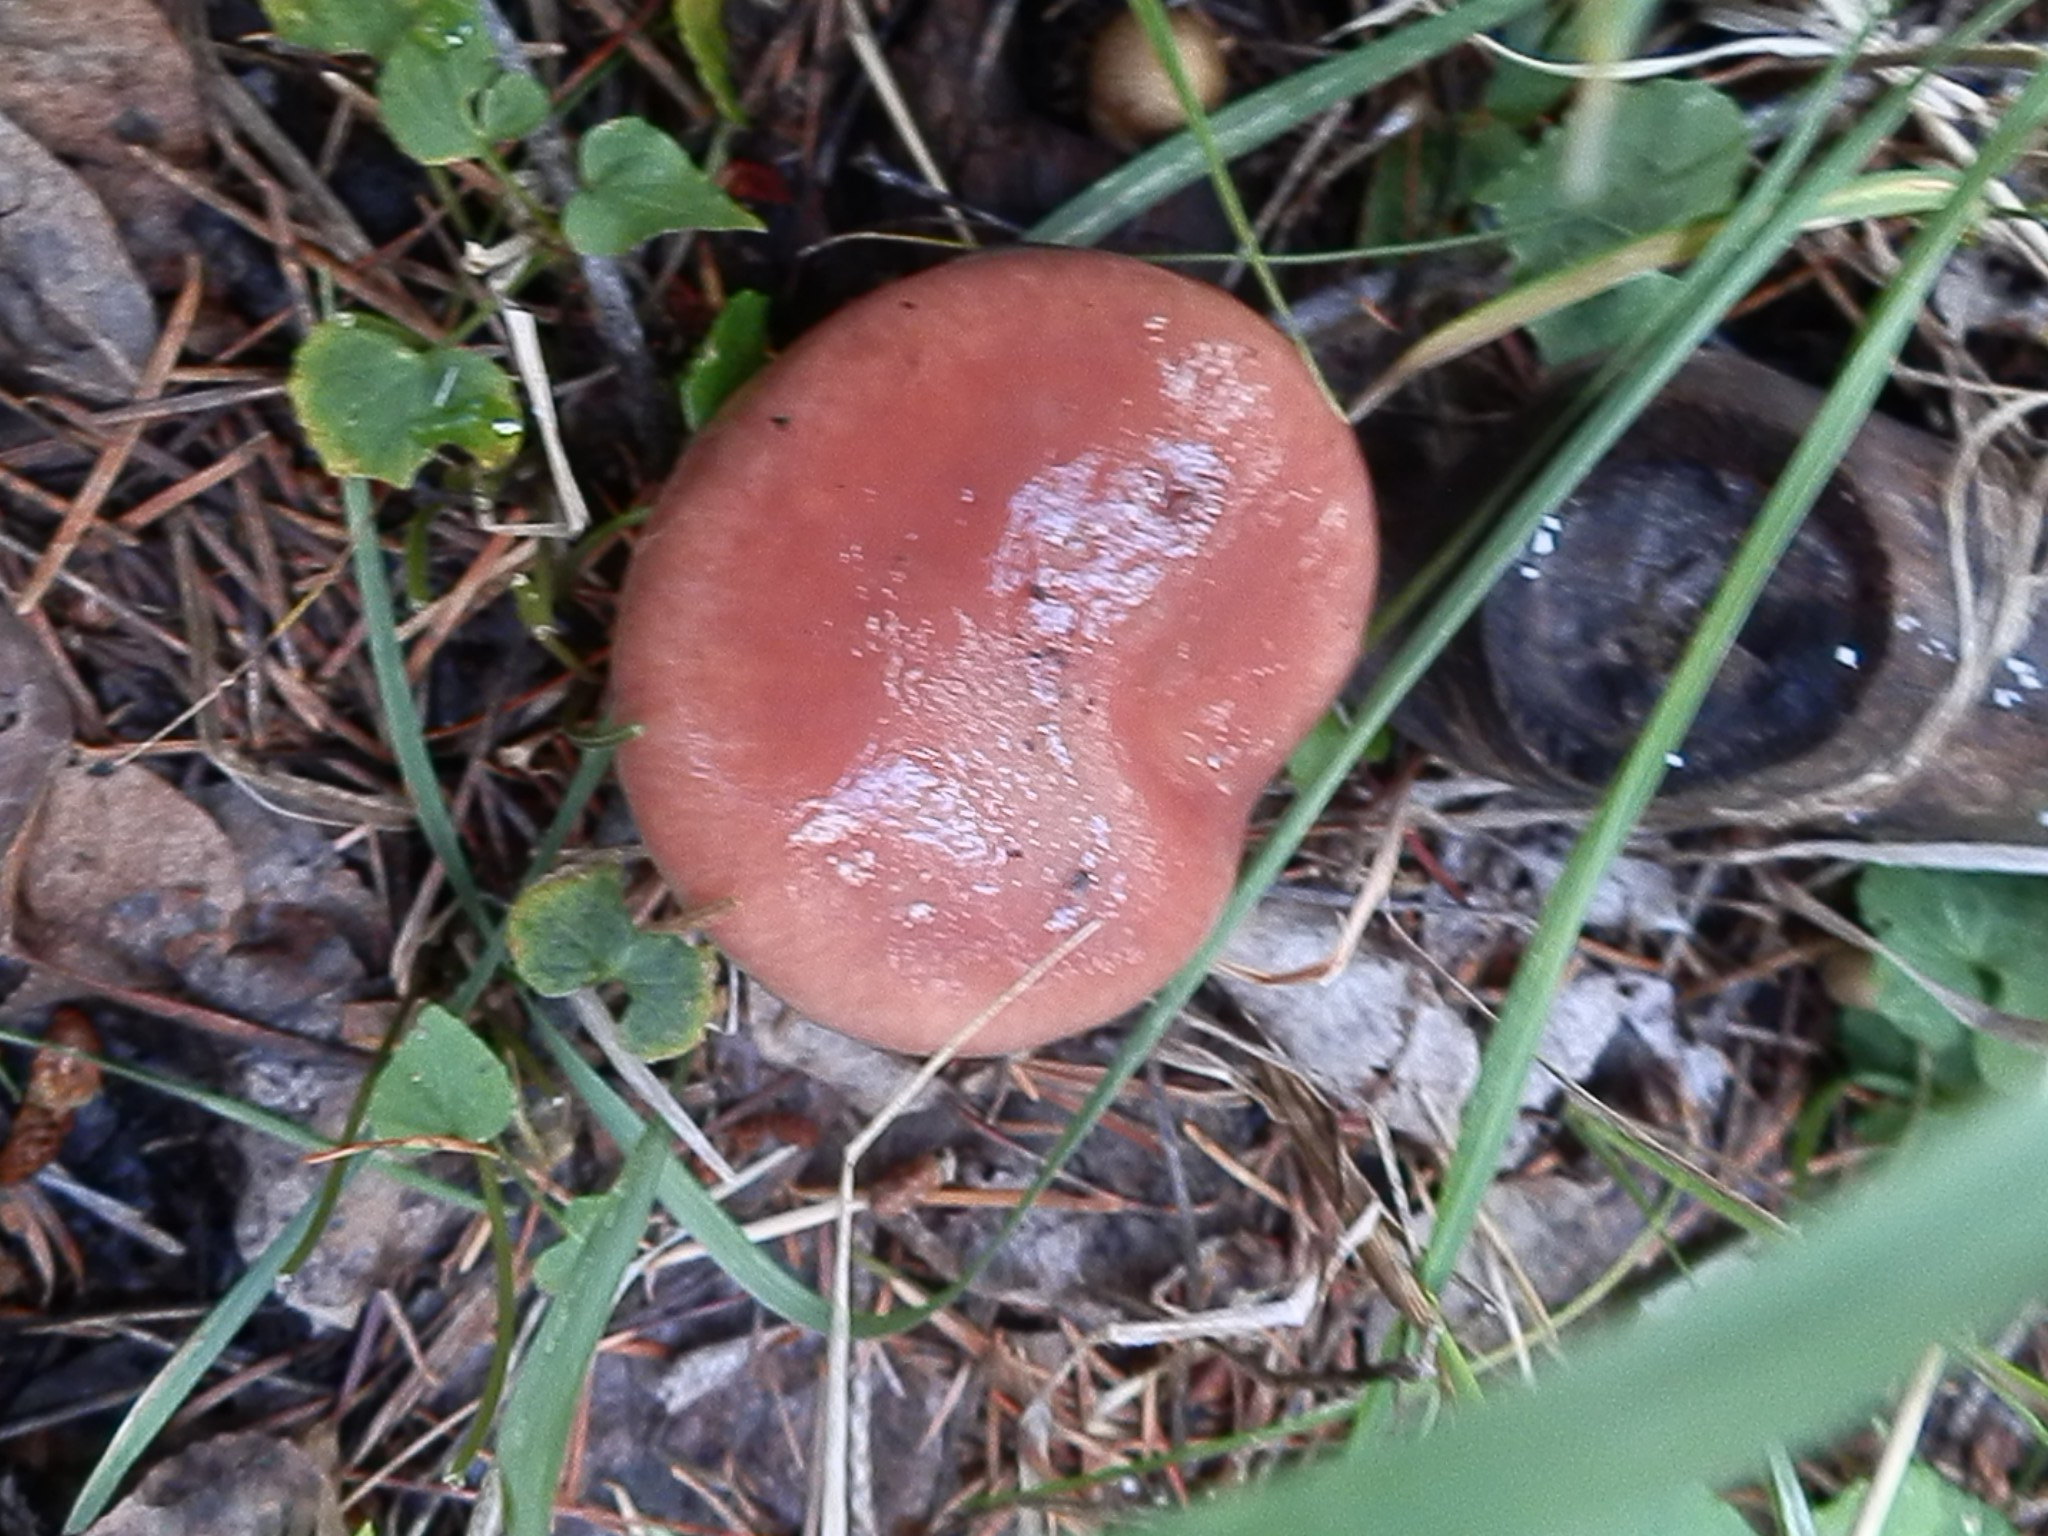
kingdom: Fungi
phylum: Basidiomycota
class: Agaricomycetes
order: Boletales
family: Gomphidiaceae
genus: Gomphidius
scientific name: Gomphidius subroseus
